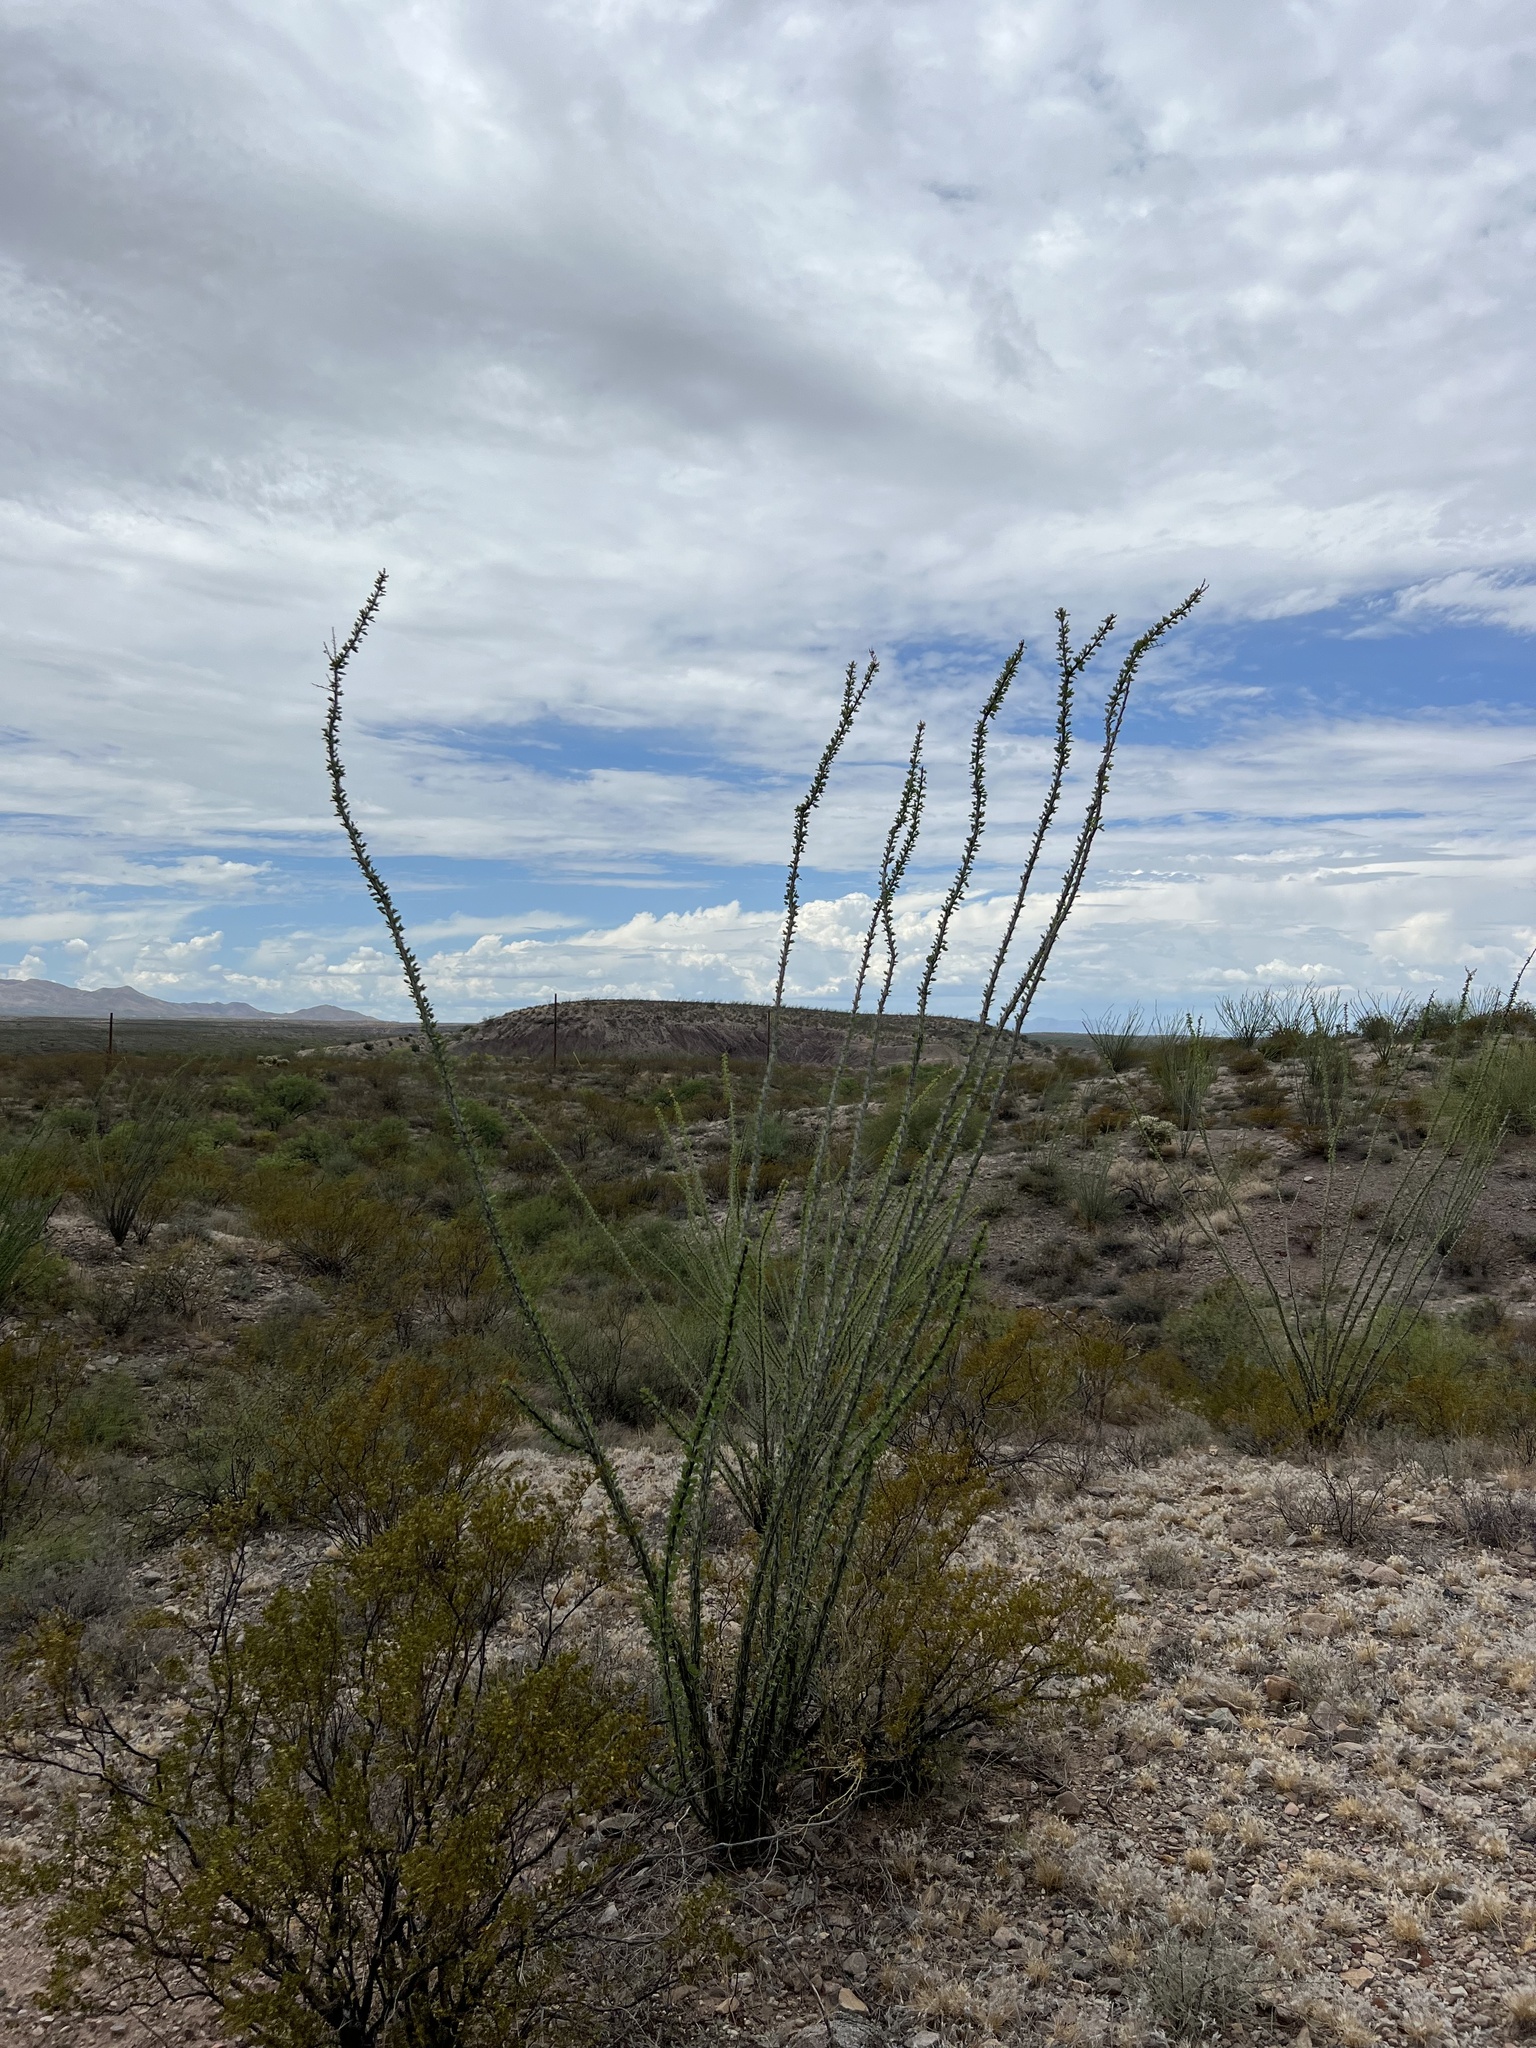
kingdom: Plantae
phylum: Tracheophyta
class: Magnoliopsida
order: Ericales
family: Fouquieriaceae
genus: Fouquieria
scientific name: Fouquieria splendens
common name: Vine-cactus
